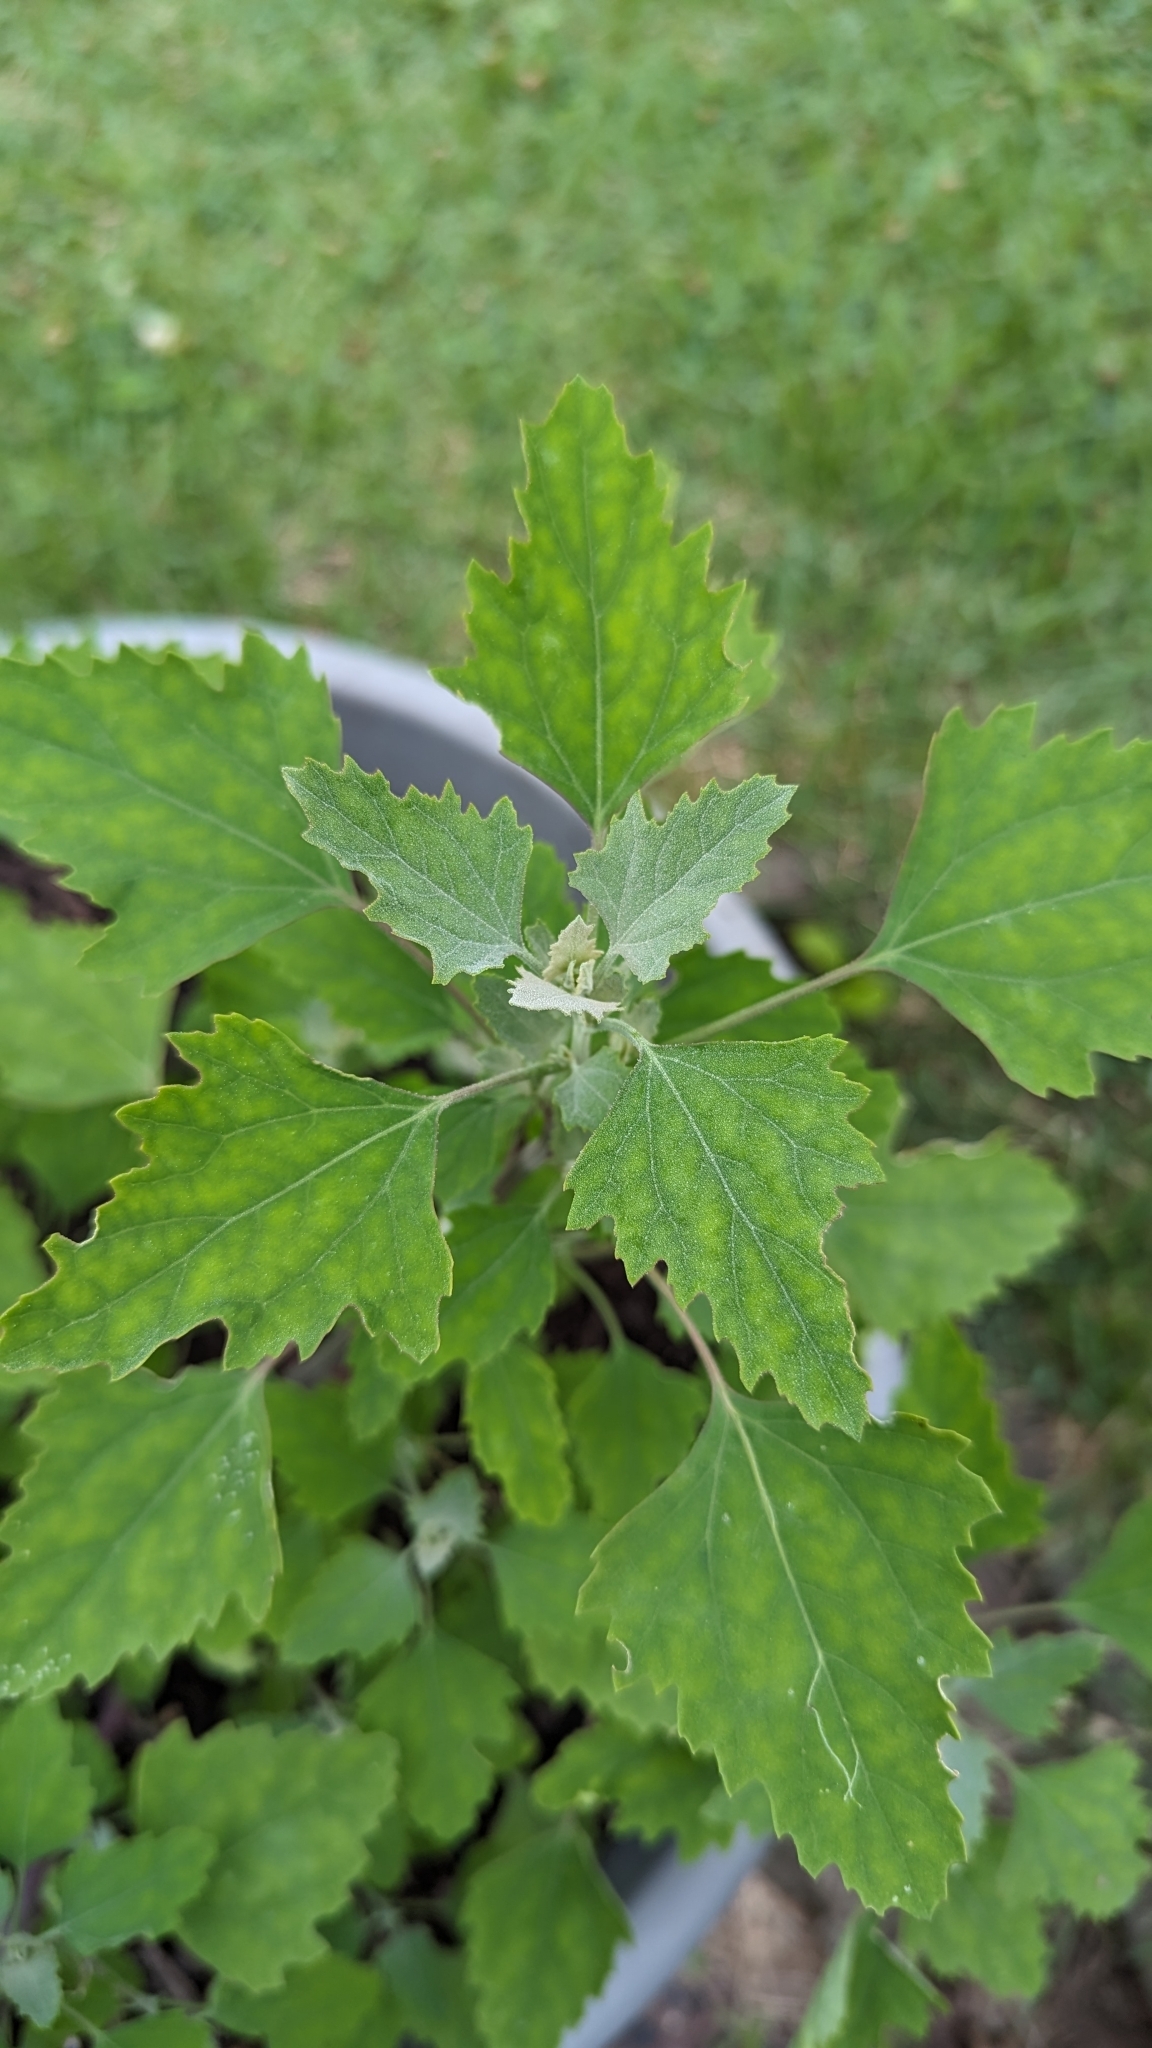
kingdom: Plantae
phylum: Tracheophyta
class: Magnoliopsida
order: Caryophyllales
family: Amaranthaceae
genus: Chenopodium
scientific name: Chenopodium album
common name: Fat-hen
